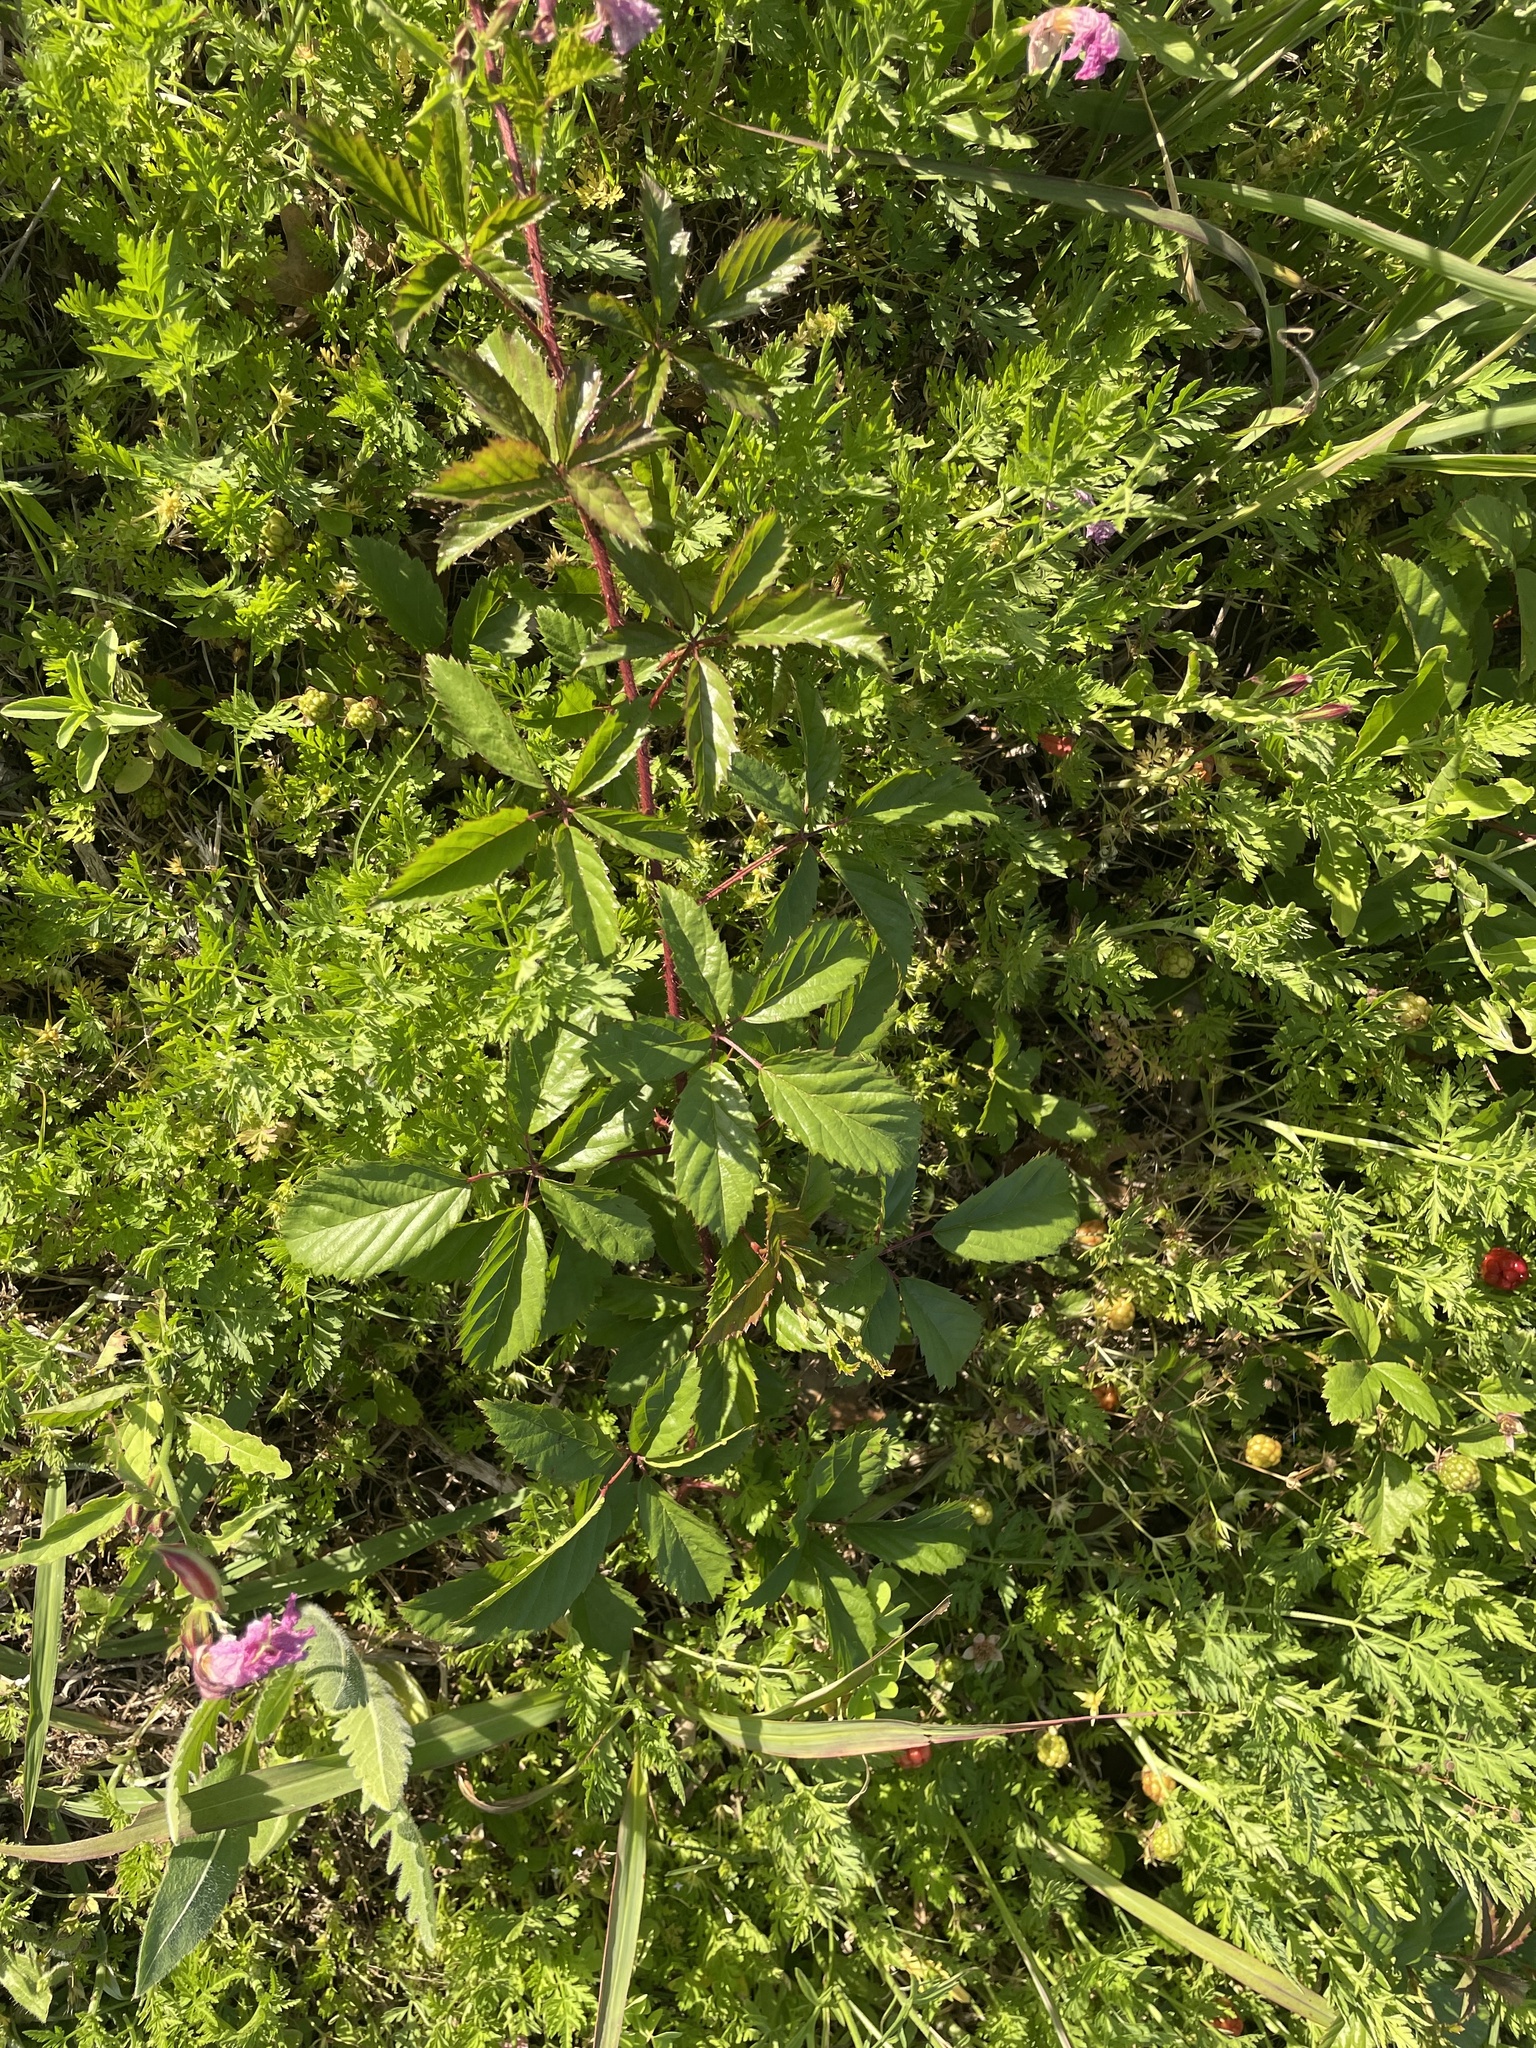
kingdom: Plantae
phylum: Tracheophyta
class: Magnoliopsida
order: Rosales
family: Rosaceae
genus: Rubus
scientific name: Rubus trivialis
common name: Southern dewberry
